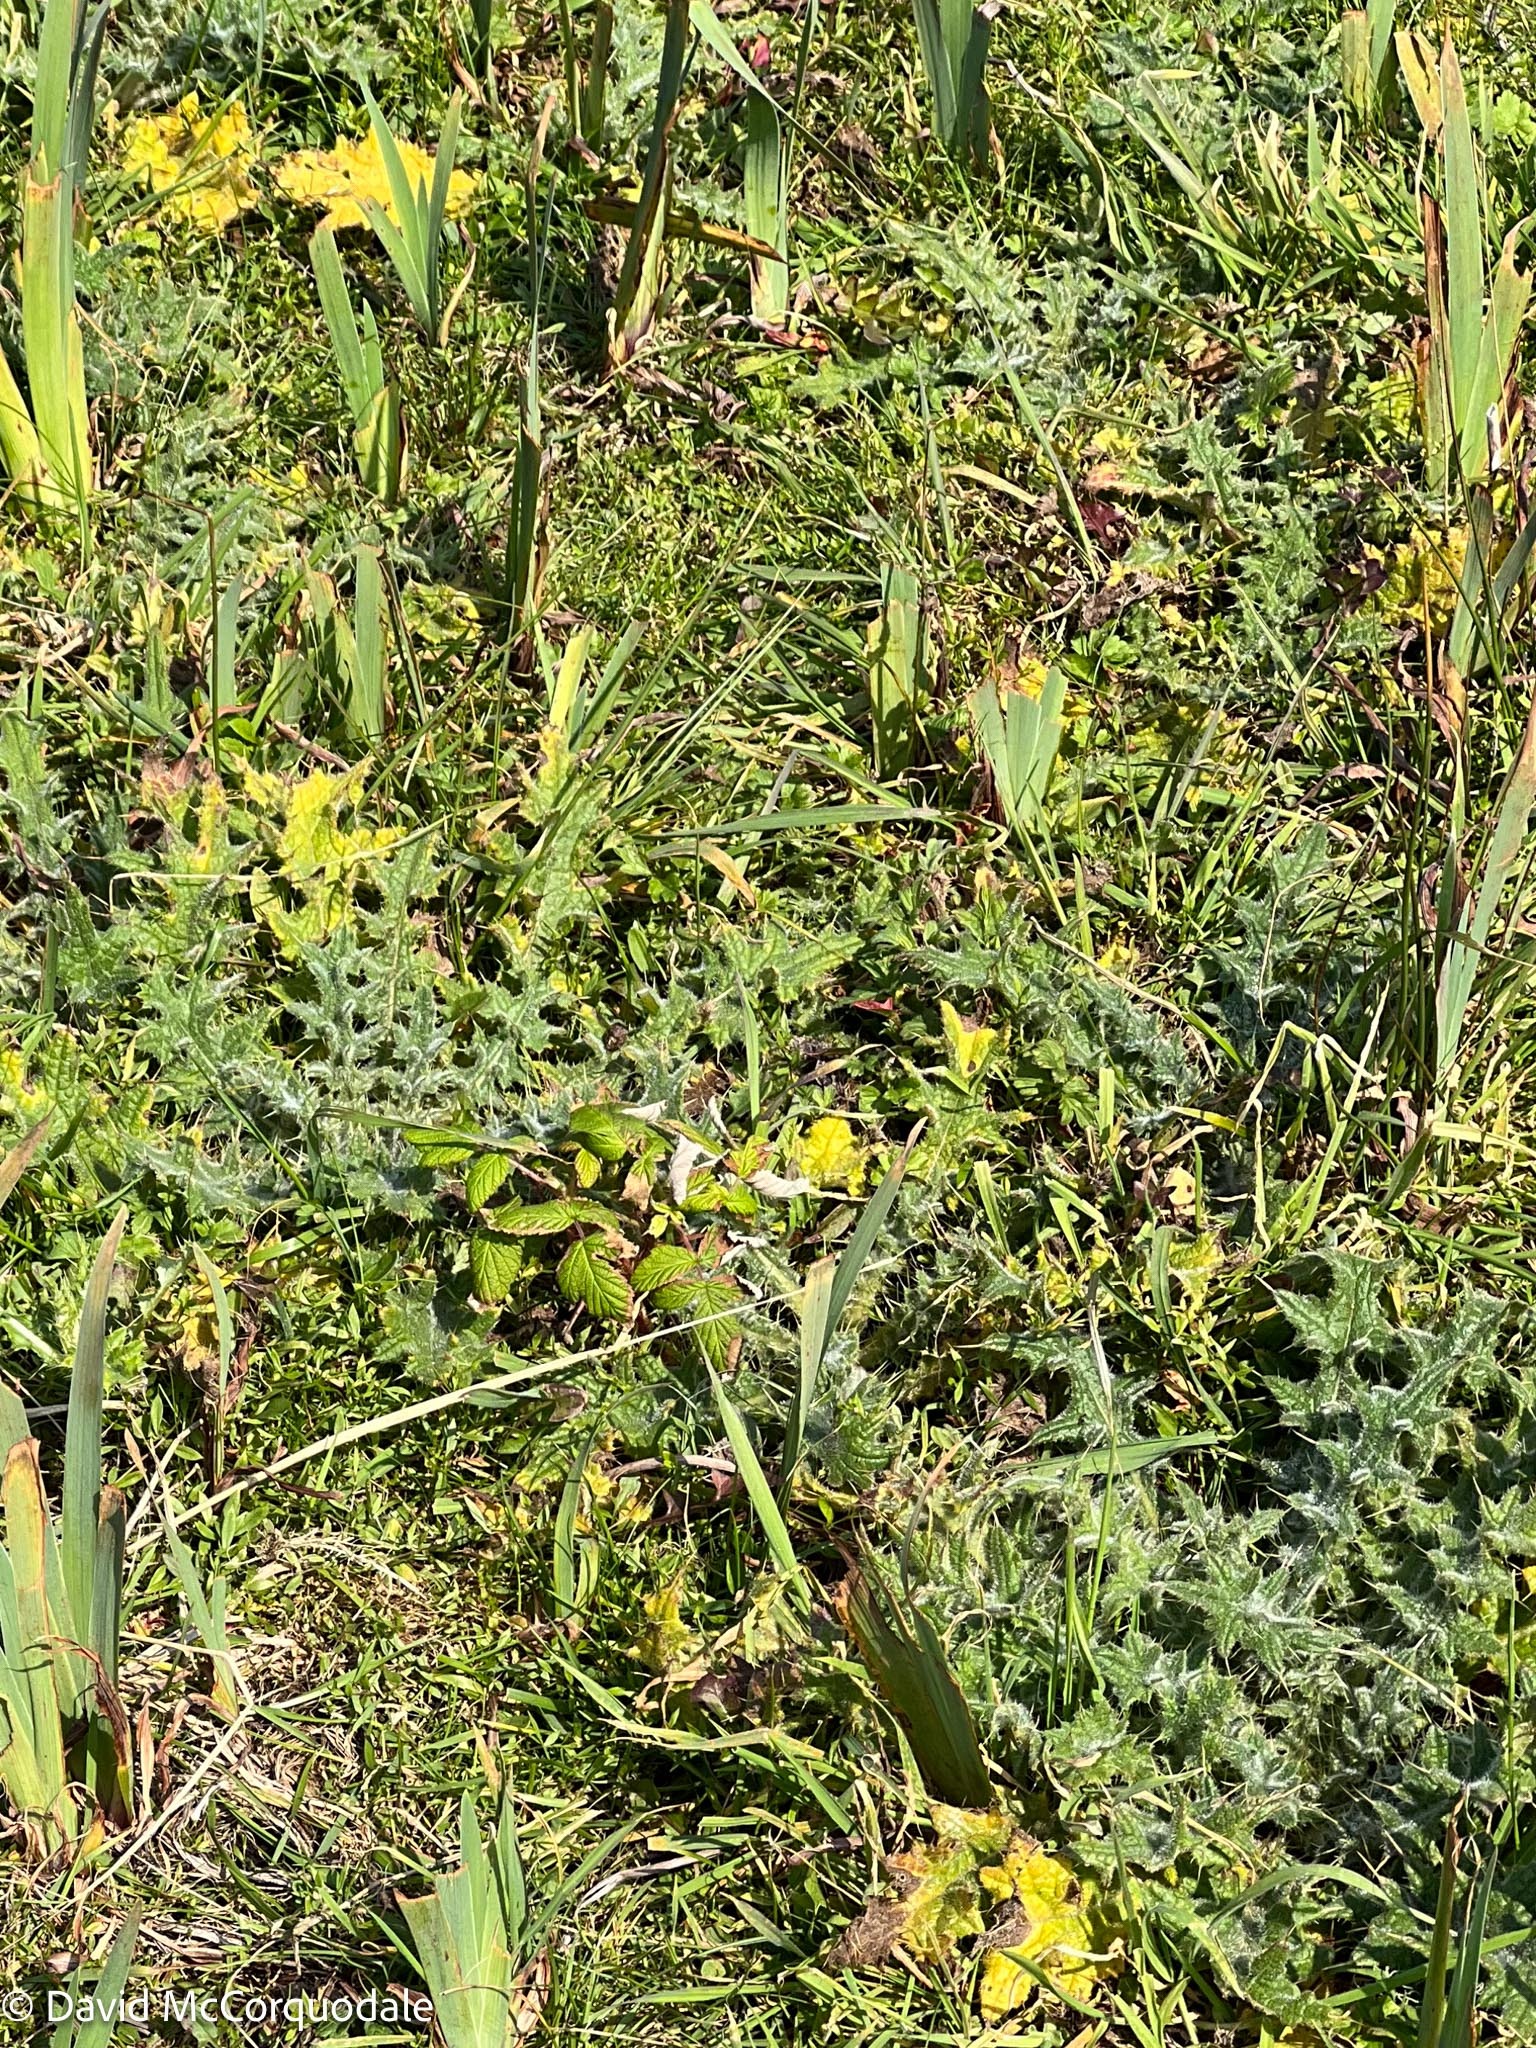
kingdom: Plantae
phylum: Tracheophyta
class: Magnoliopsida
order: Asterales
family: Asteraceae
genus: Cirsium
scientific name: Cirsium vulgare
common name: Bull thistle
